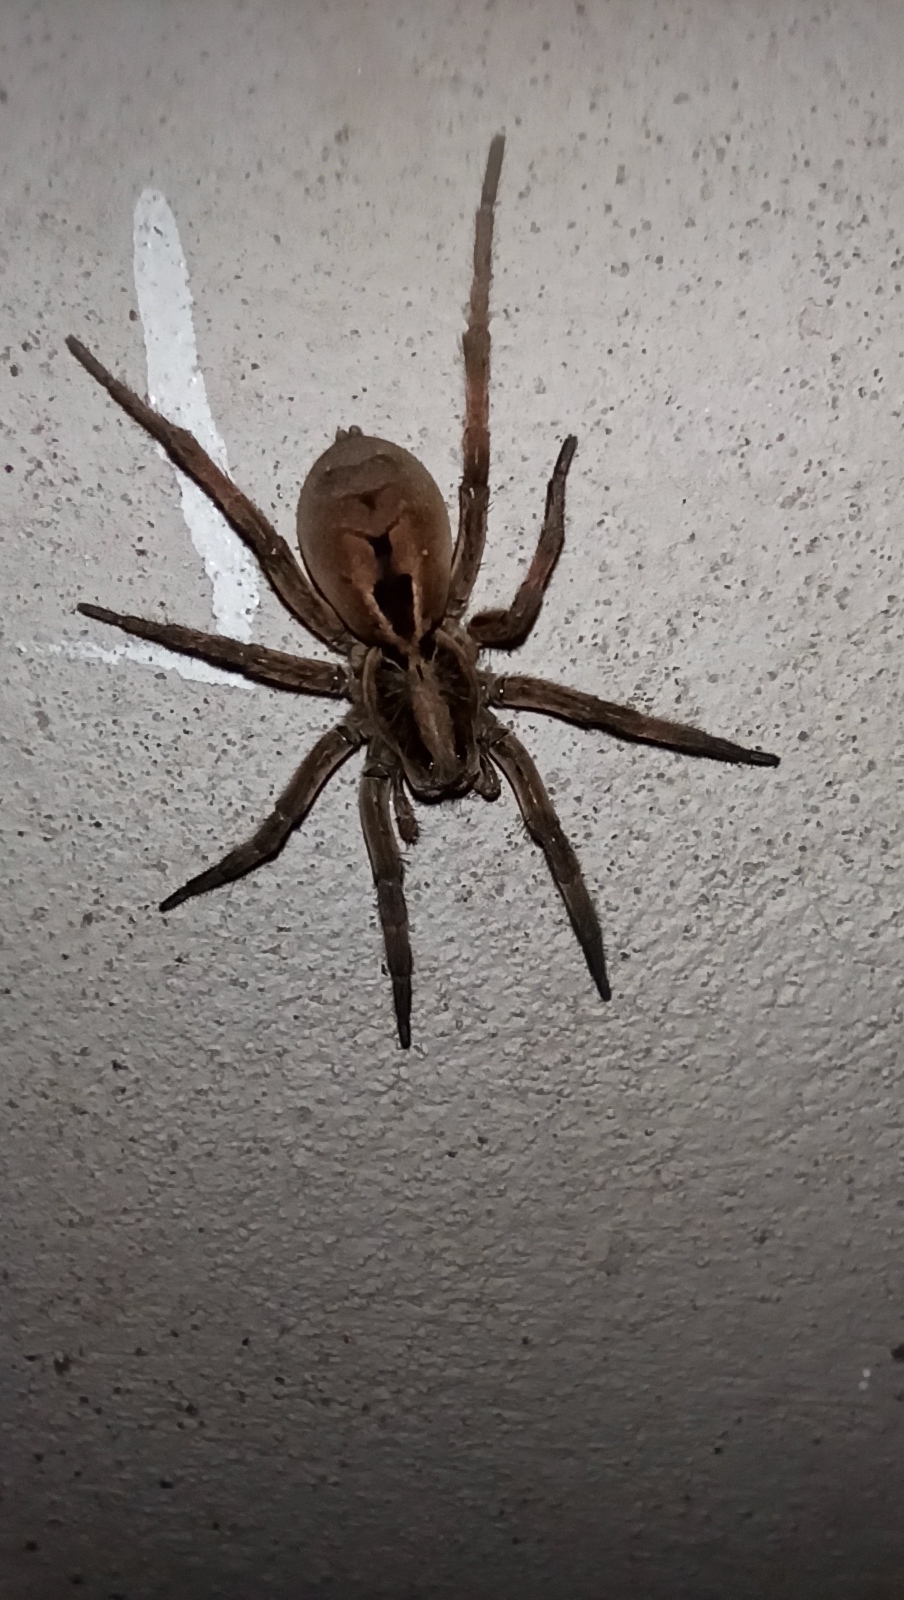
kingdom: Animalia
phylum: Arthropoda
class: Arachnida
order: Araneae
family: Lycosidae
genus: Lycosa
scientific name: Lycosa erythrognatha
